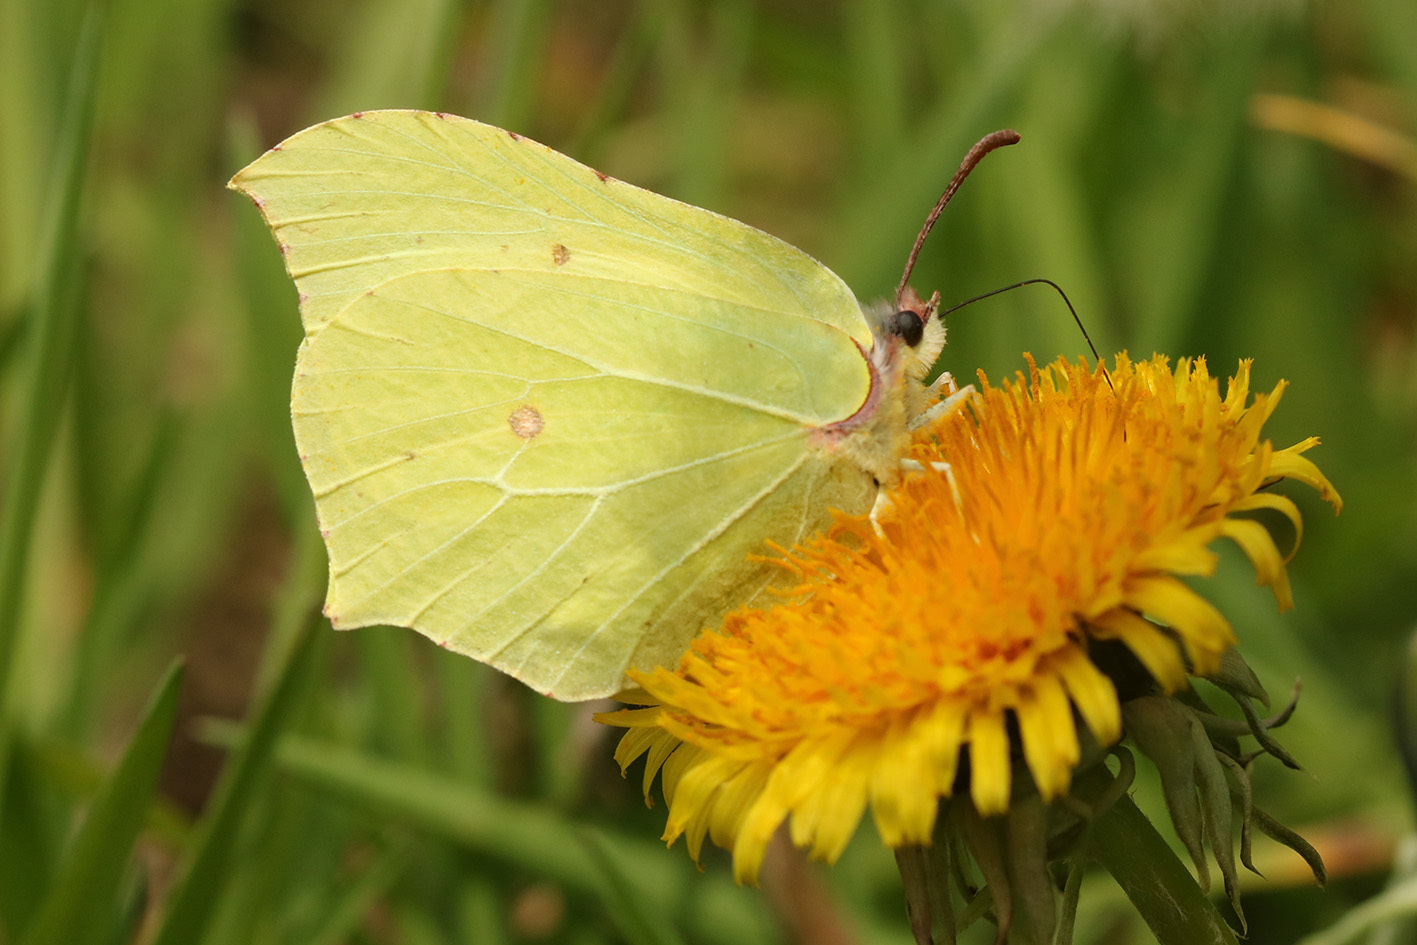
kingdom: Animalia
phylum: Arthropoda
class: Insecta
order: Lepidoptera
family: Pieridae
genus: Gonepteryx
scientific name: Gonepteryx rhamni
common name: Brimstone
